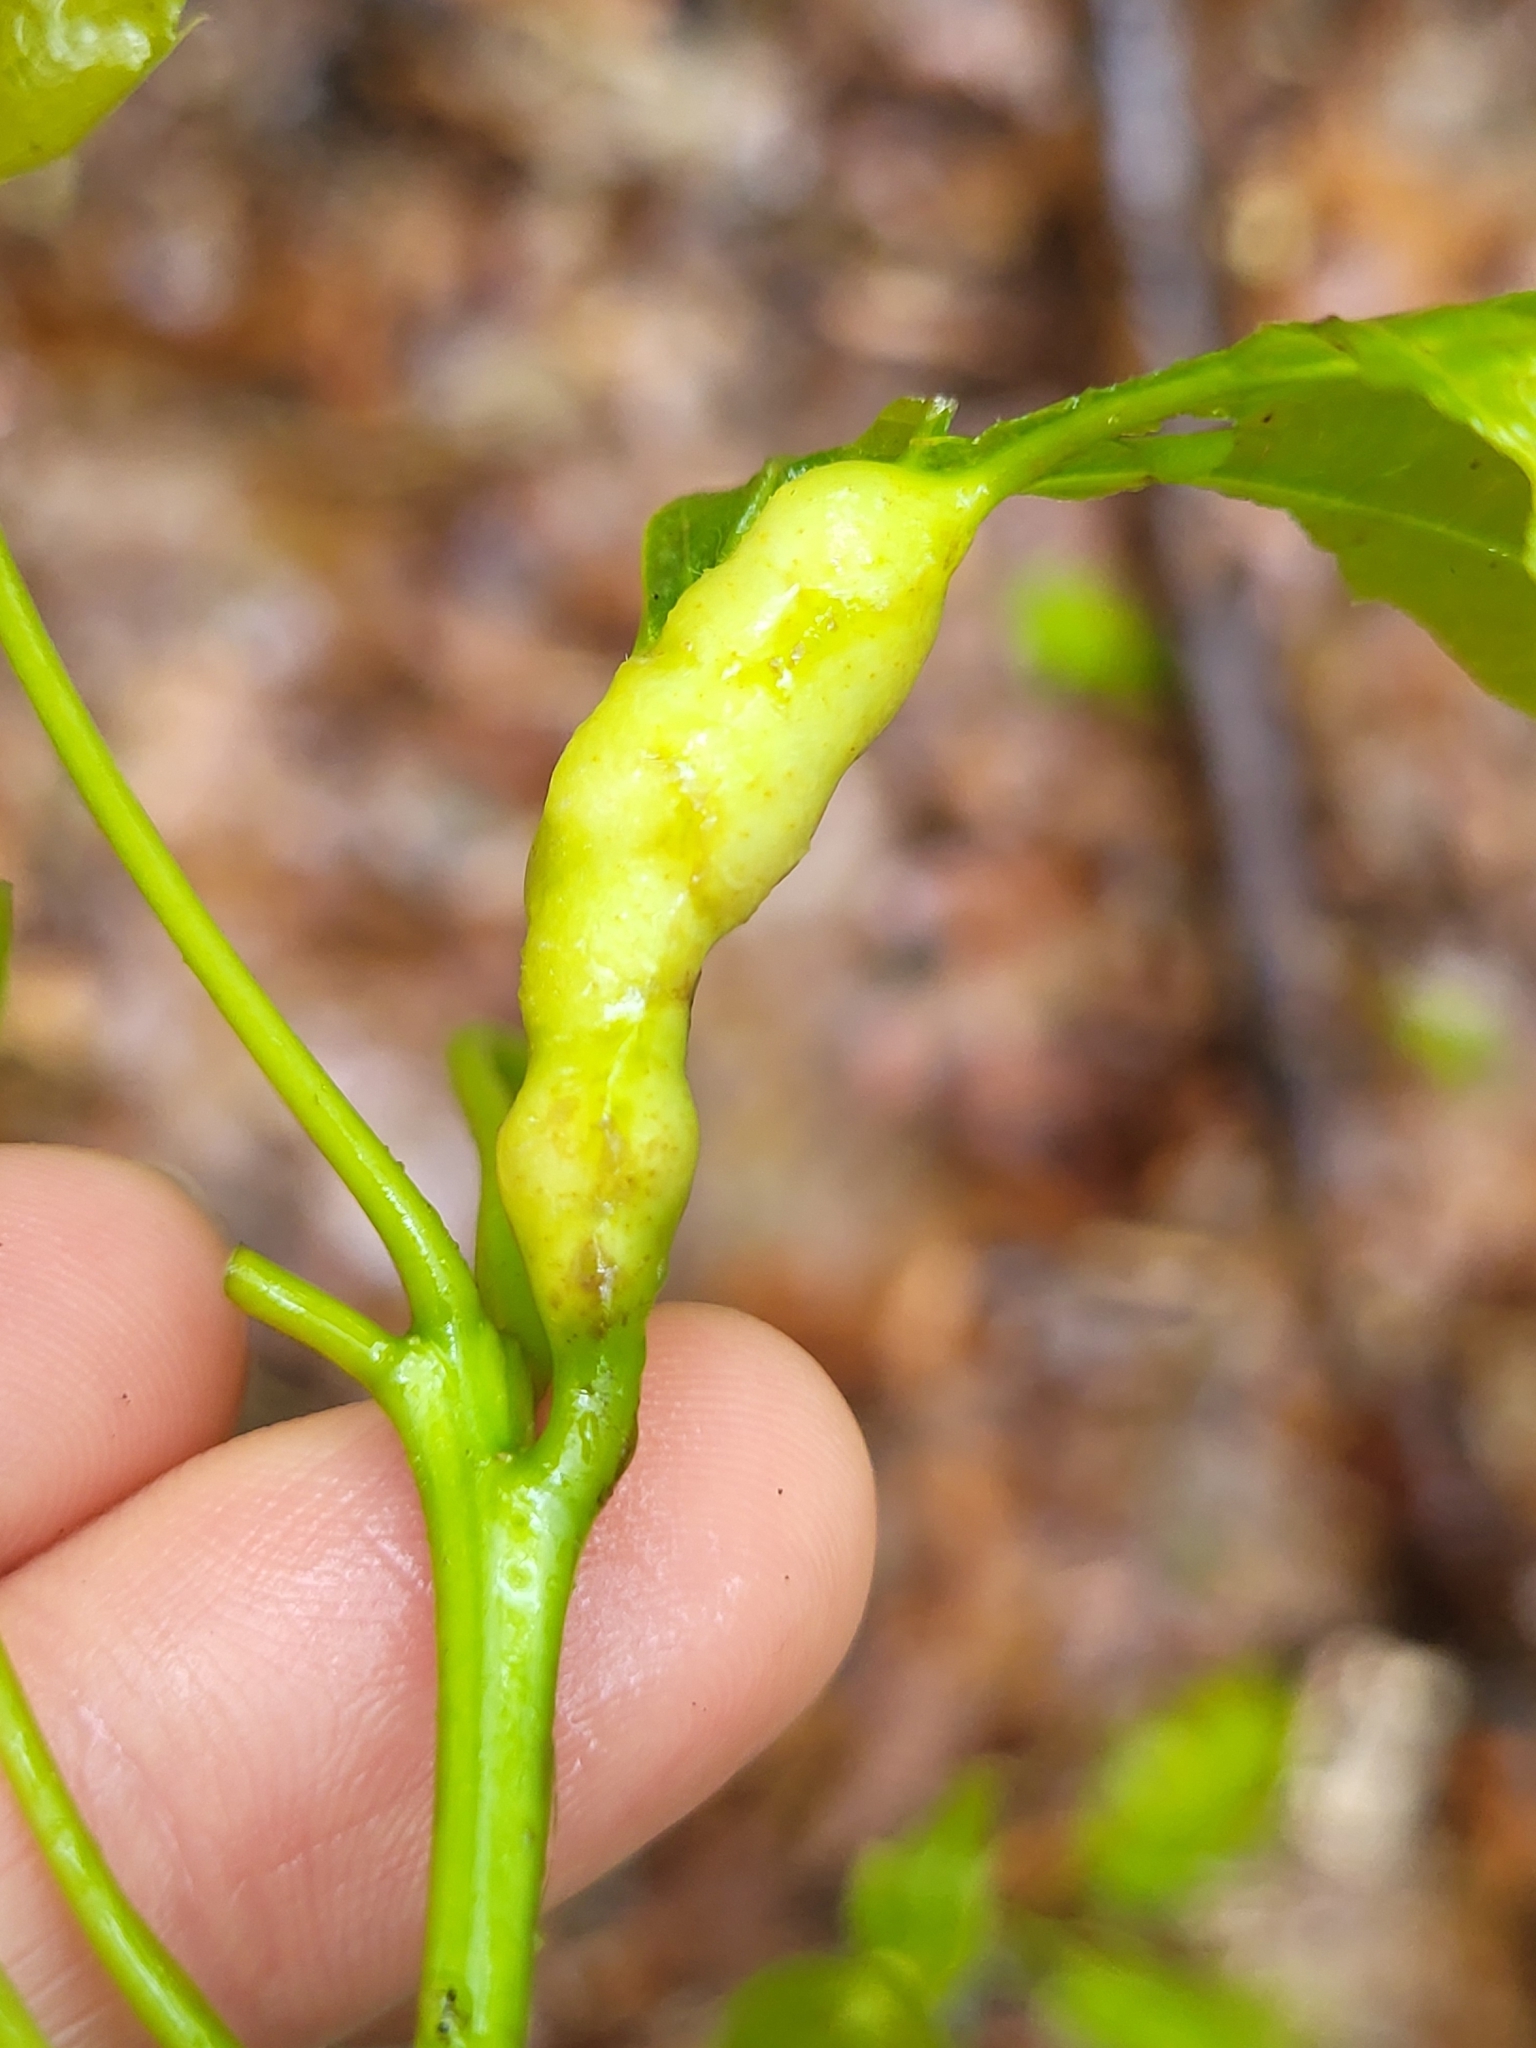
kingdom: Animalia
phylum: Arthropoda
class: Insecta
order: Hymenoptera
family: Cynipidae
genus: Melikaiella
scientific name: Melikaiella tumifica
